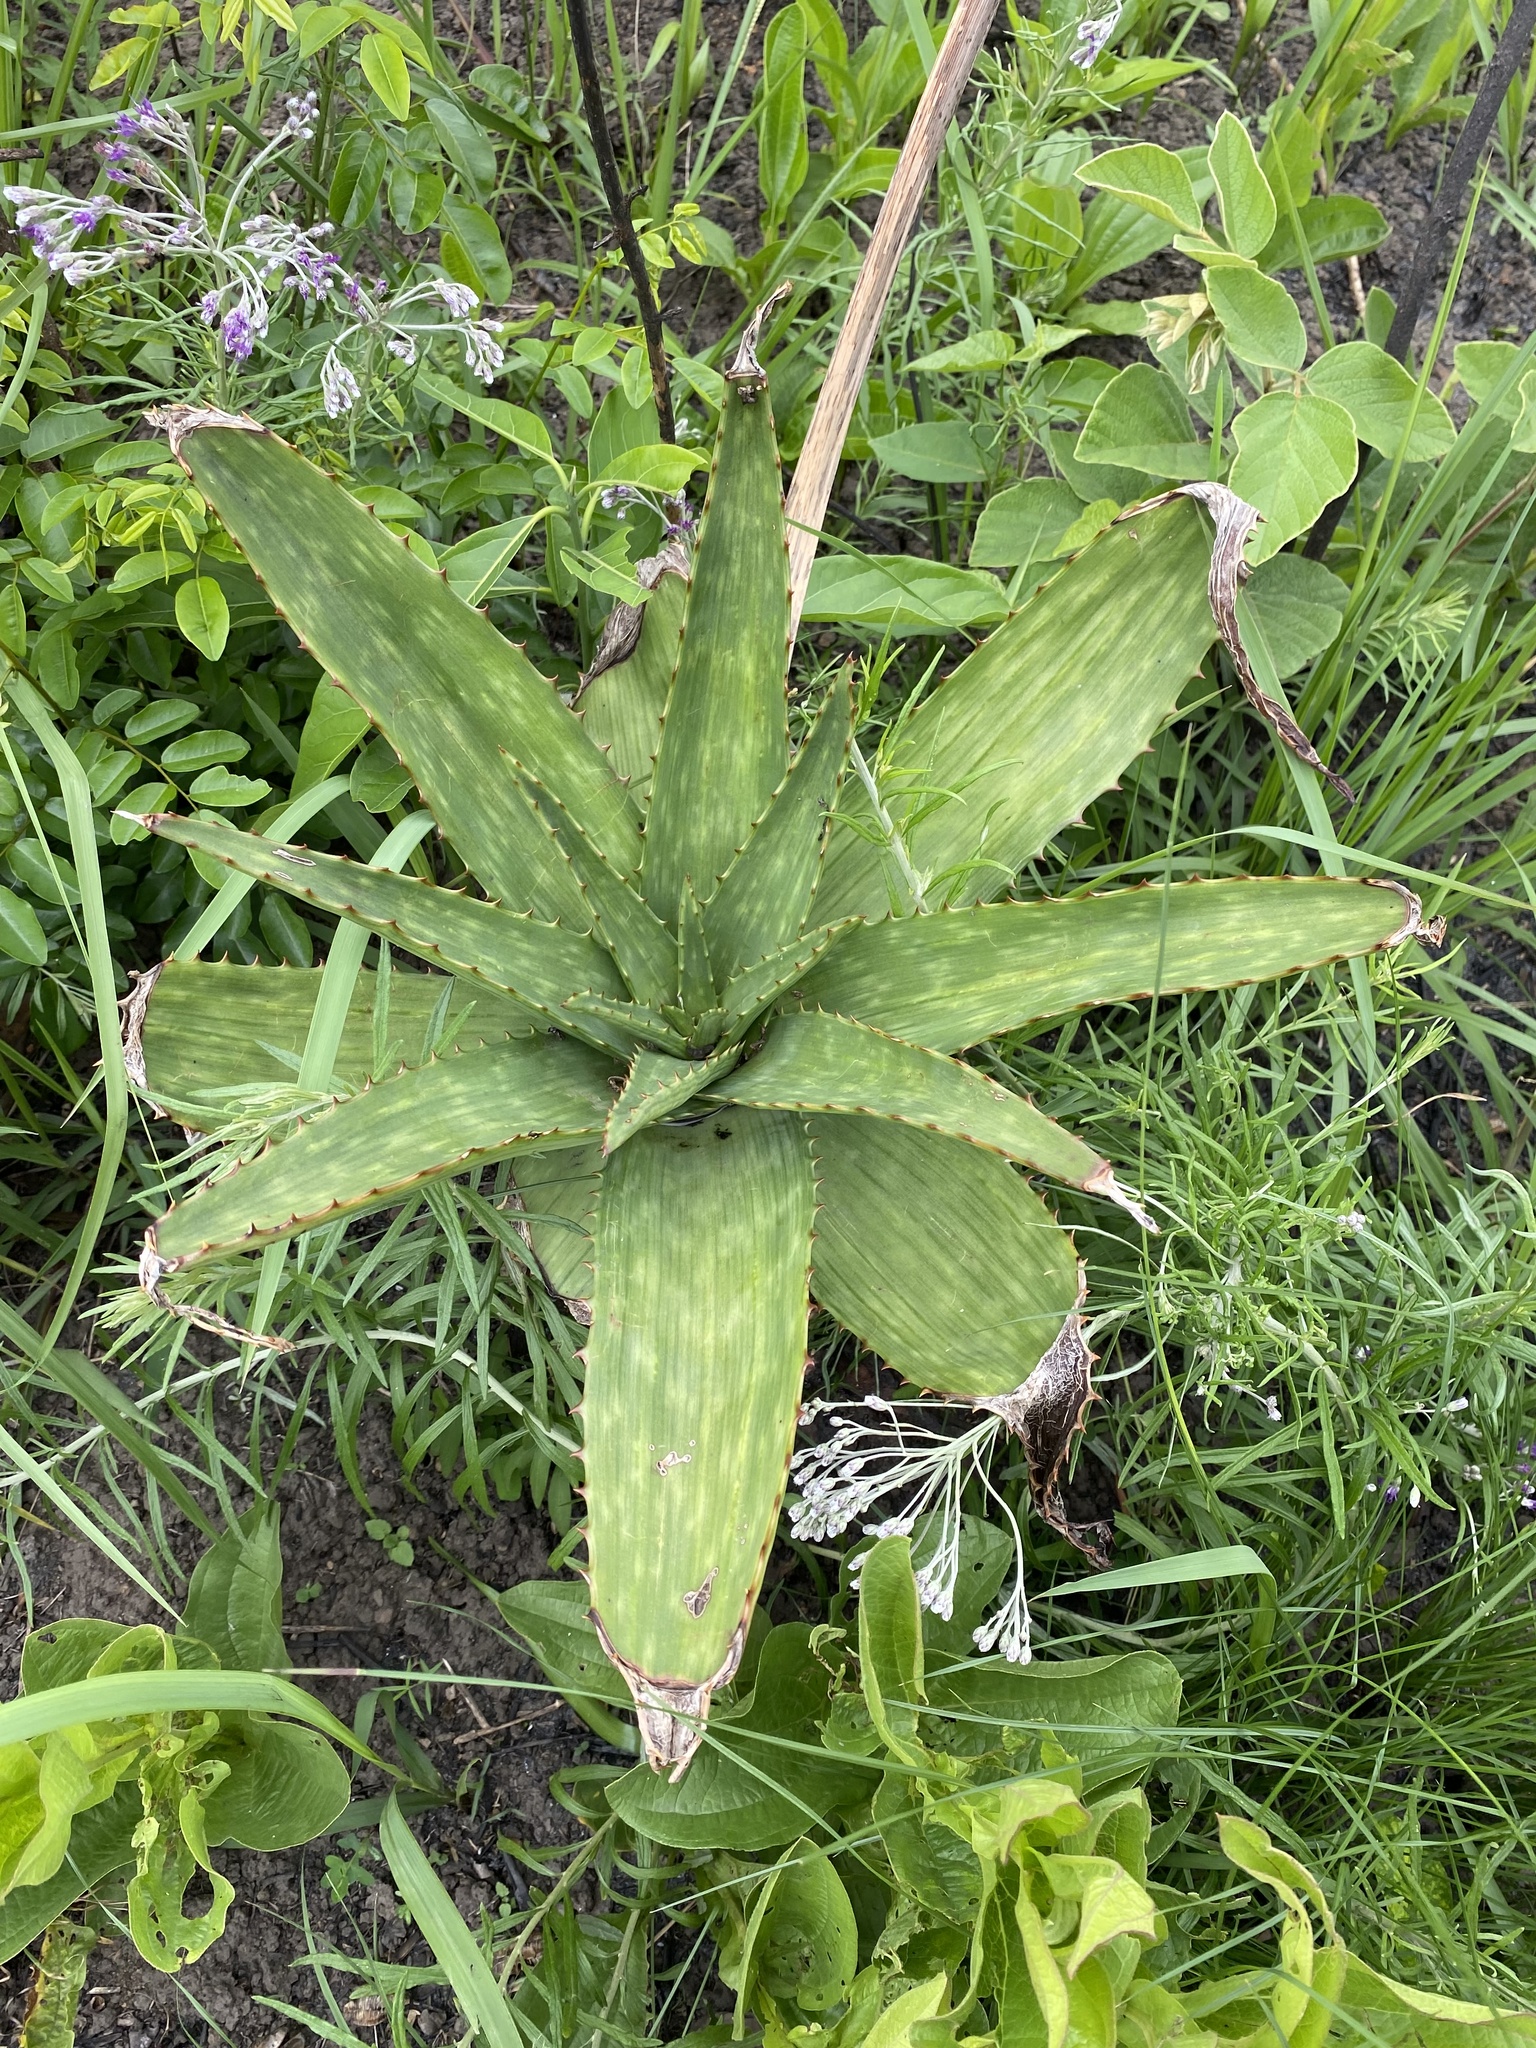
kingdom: Plantae
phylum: Tracheophyta
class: Liliopsida
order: Asparagales
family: Asphodelaceae
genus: Aloe
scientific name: Aloe maculata
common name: Broadleaf aloe
